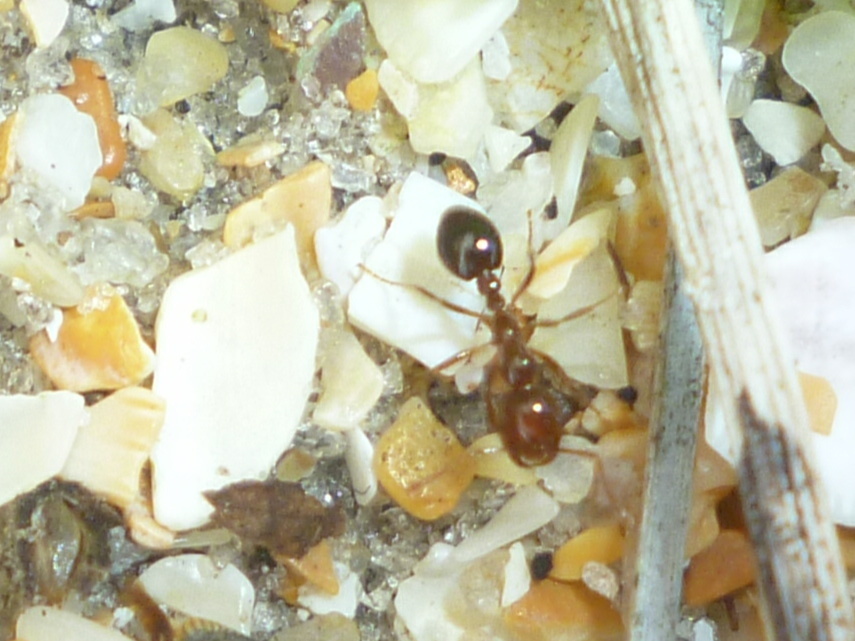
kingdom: Animalia
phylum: Arthropoda
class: Insecta
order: Hymenoptera
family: Formicidae
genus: Solenopsis
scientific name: Solenopsis invicta
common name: Red imported fire ant
